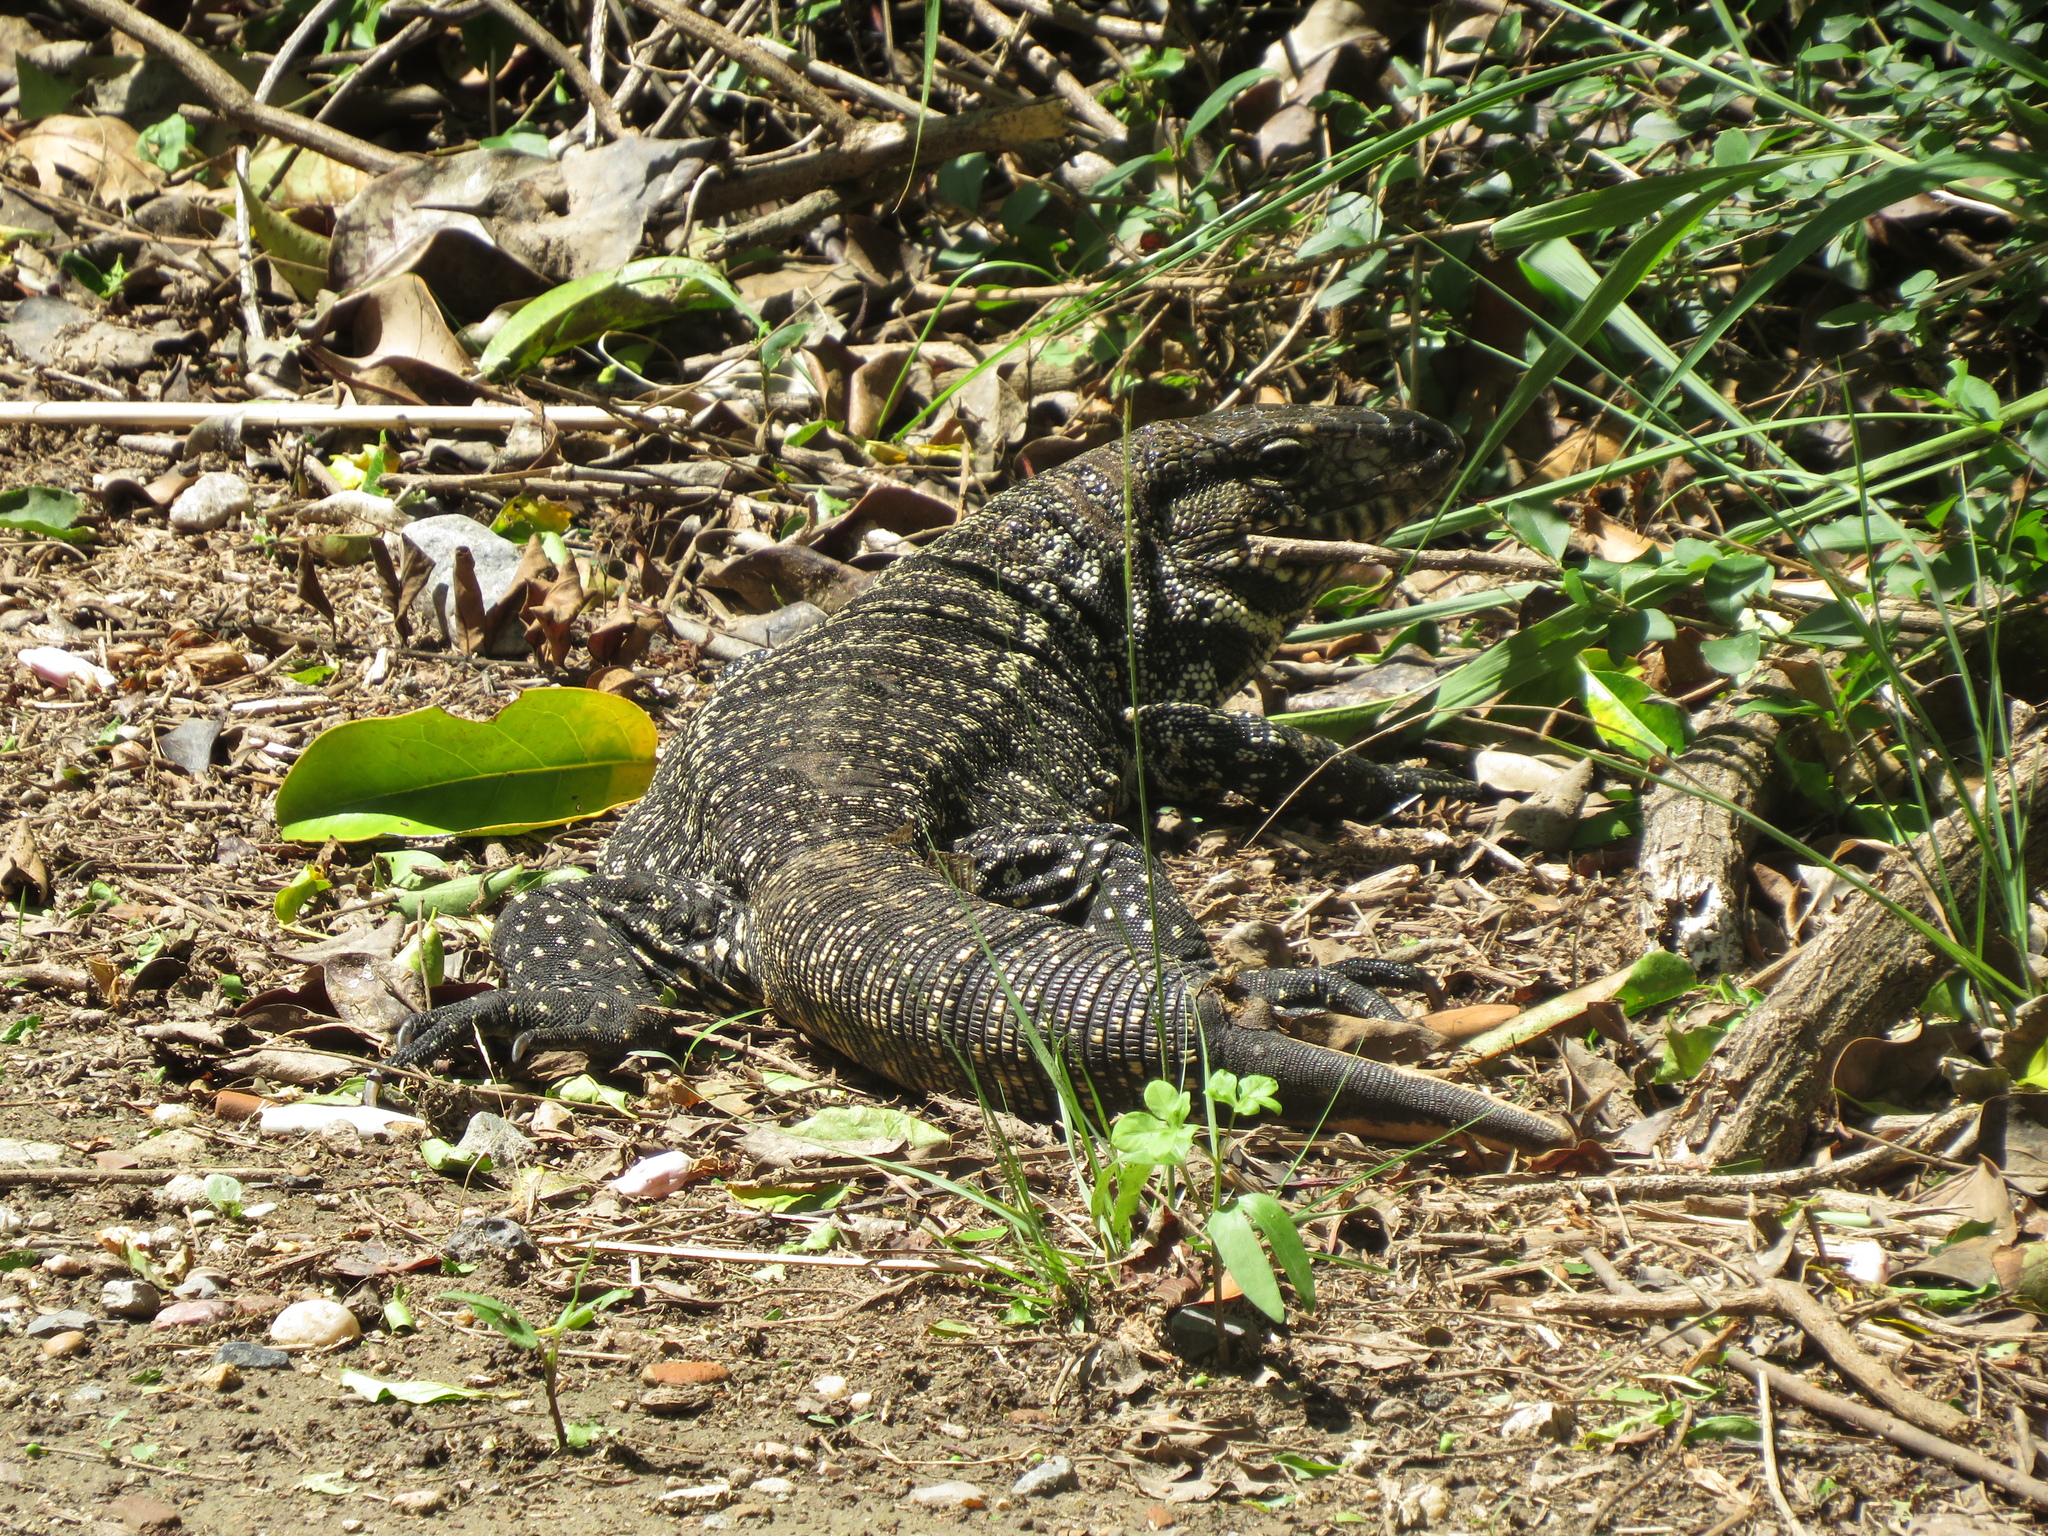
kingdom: Animalia
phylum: Chordata
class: Squamata
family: Teiidae
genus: Salvator
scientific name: Salvator merianae
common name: Argentine black and white tegu
